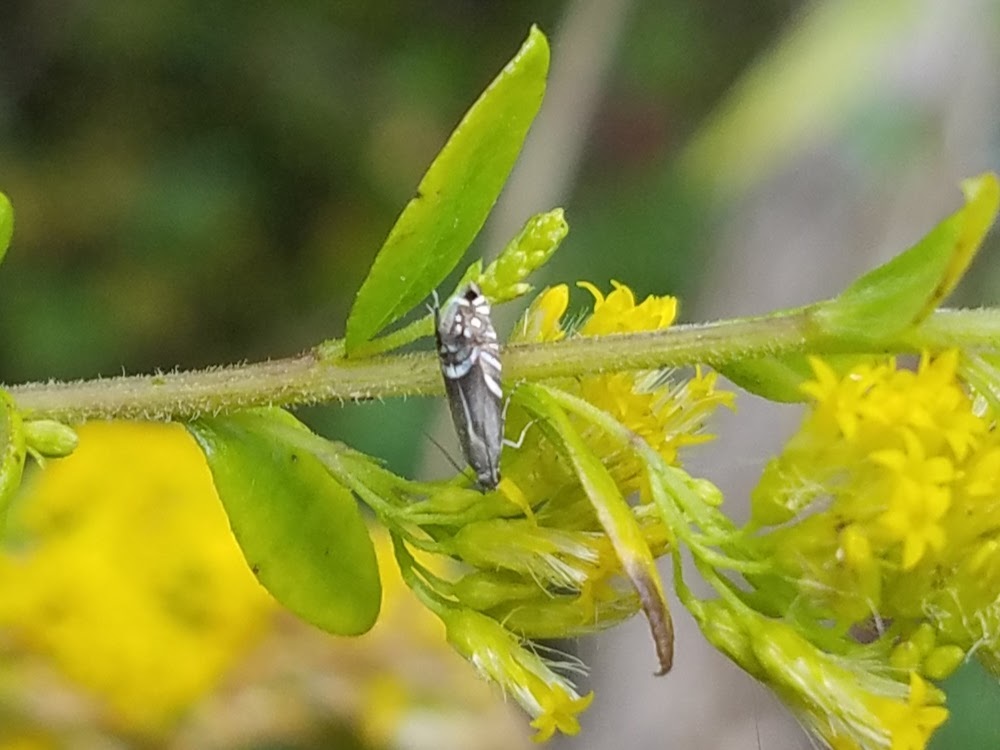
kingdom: Animalia
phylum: Arthropoda
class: Insecta
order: Lepidoptera
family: Glyphipterigidae
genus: Glyphipterix
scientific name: Glyphipterix Diploschizia impigritella
